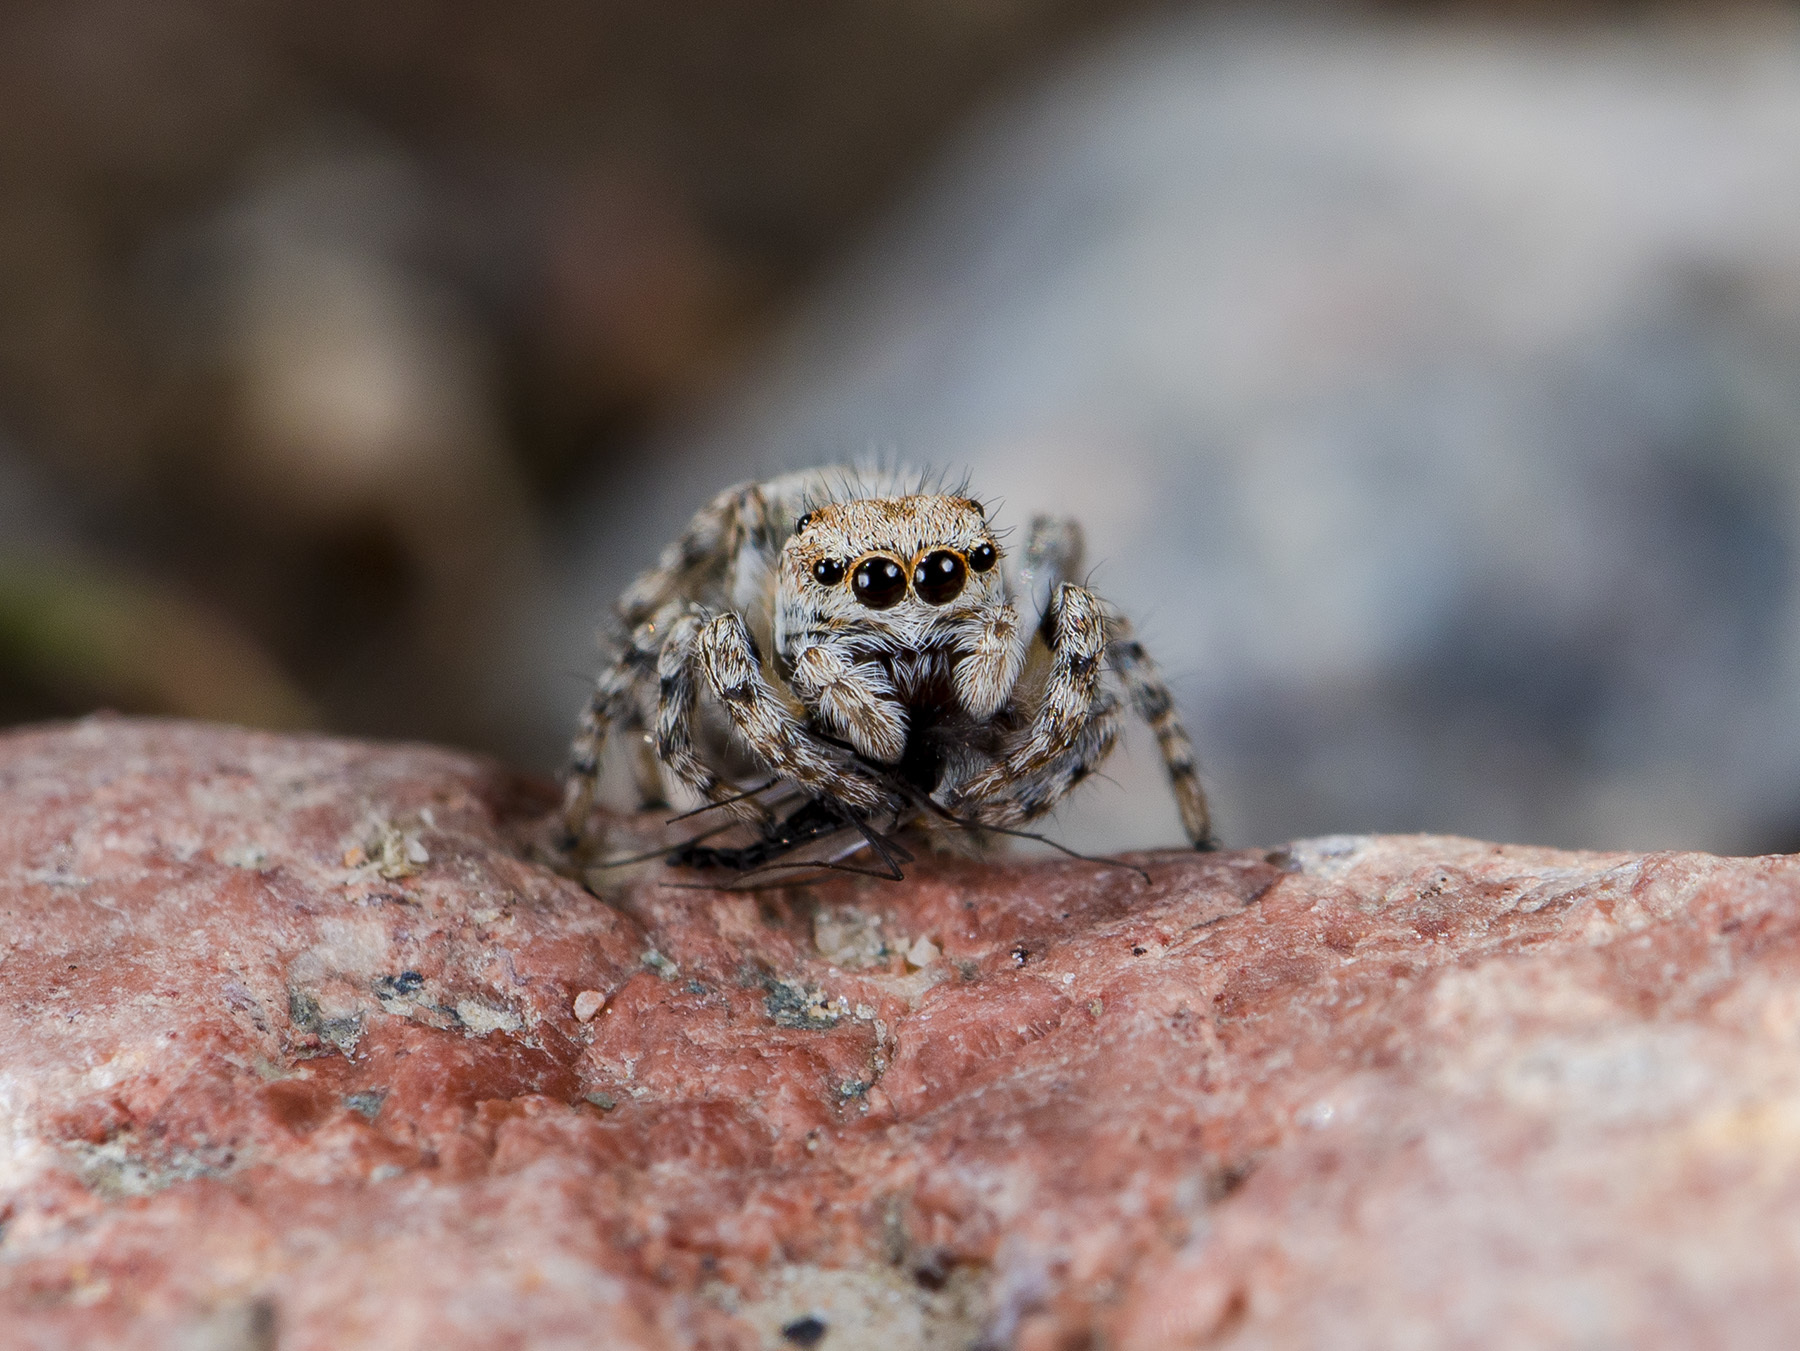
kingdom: Animalia
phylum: Arthropoda
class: Arachnida
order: Araneae
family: Salticidae
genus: Attulus
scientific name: Attulus avocator
